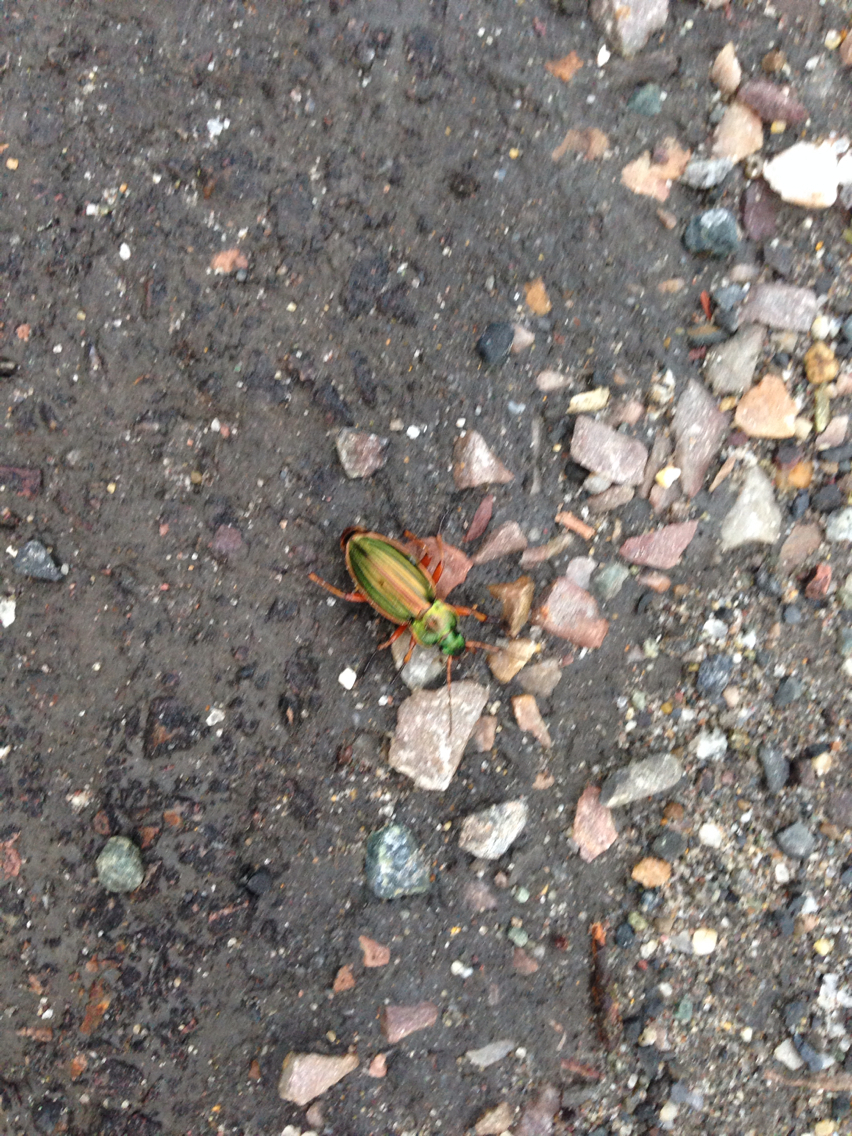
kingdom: Animalia
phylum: Arthropoda
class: Insecta
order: Coleoptera
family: Carabidae
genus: Carabus
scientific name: Carabus auratus
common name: Golden ground beetle
